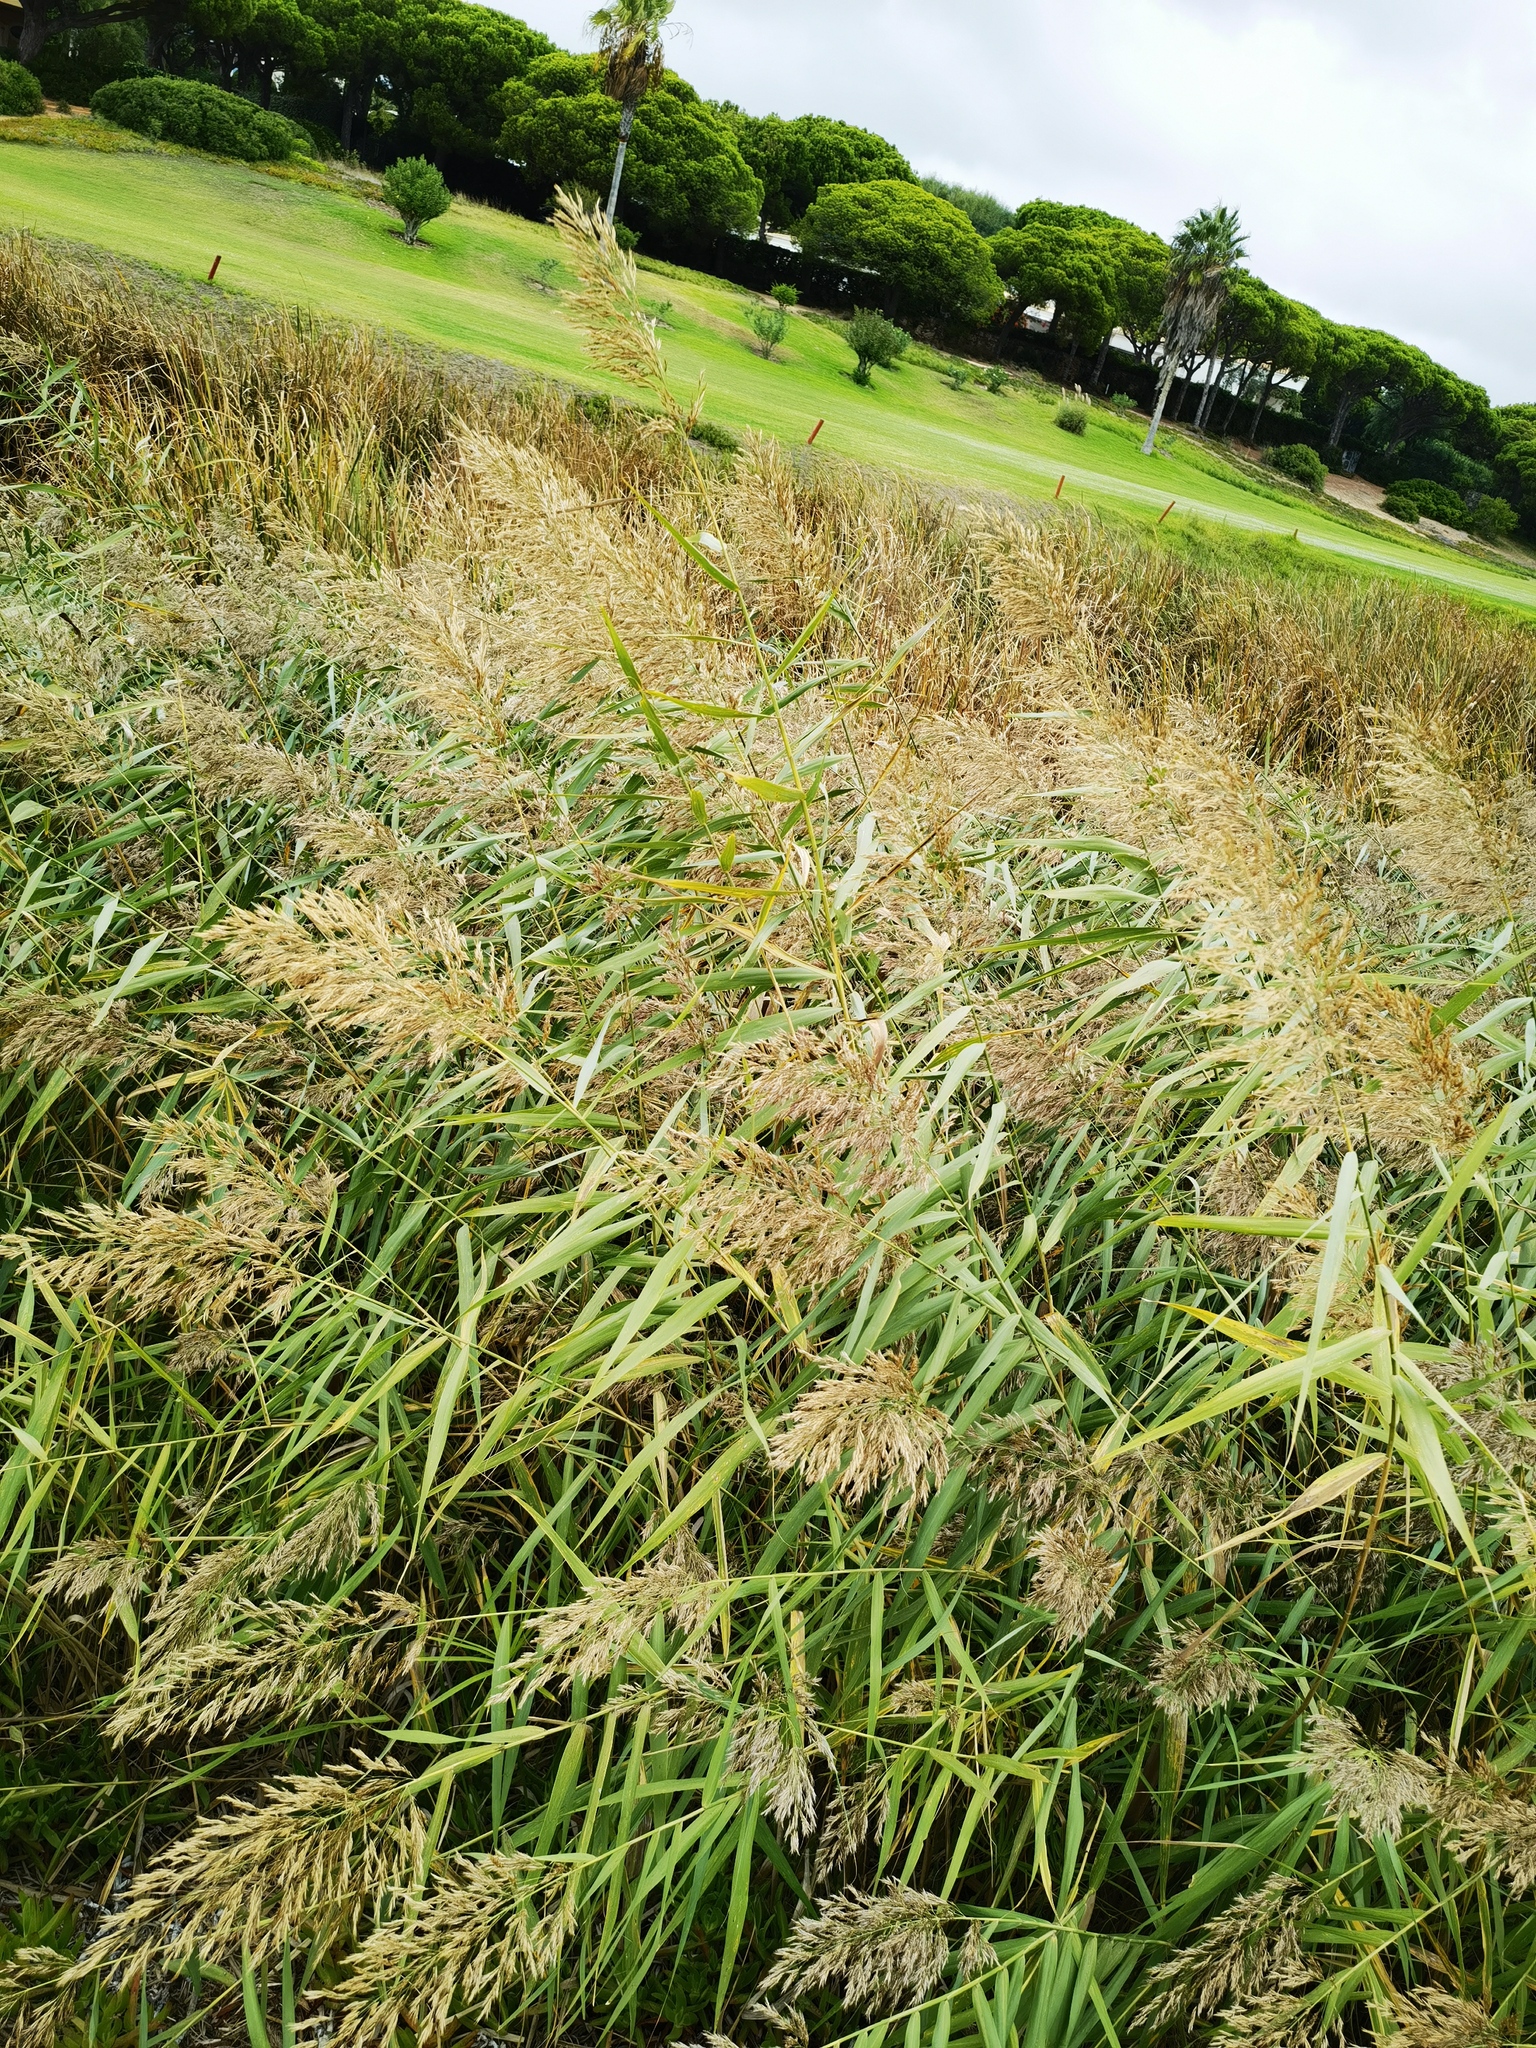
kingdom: Plantae
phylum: Tracheophyta
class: Liliopsida
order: Poales
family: Poaceae
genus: Phragmites
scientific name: Phragmites australis
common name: Common reed
